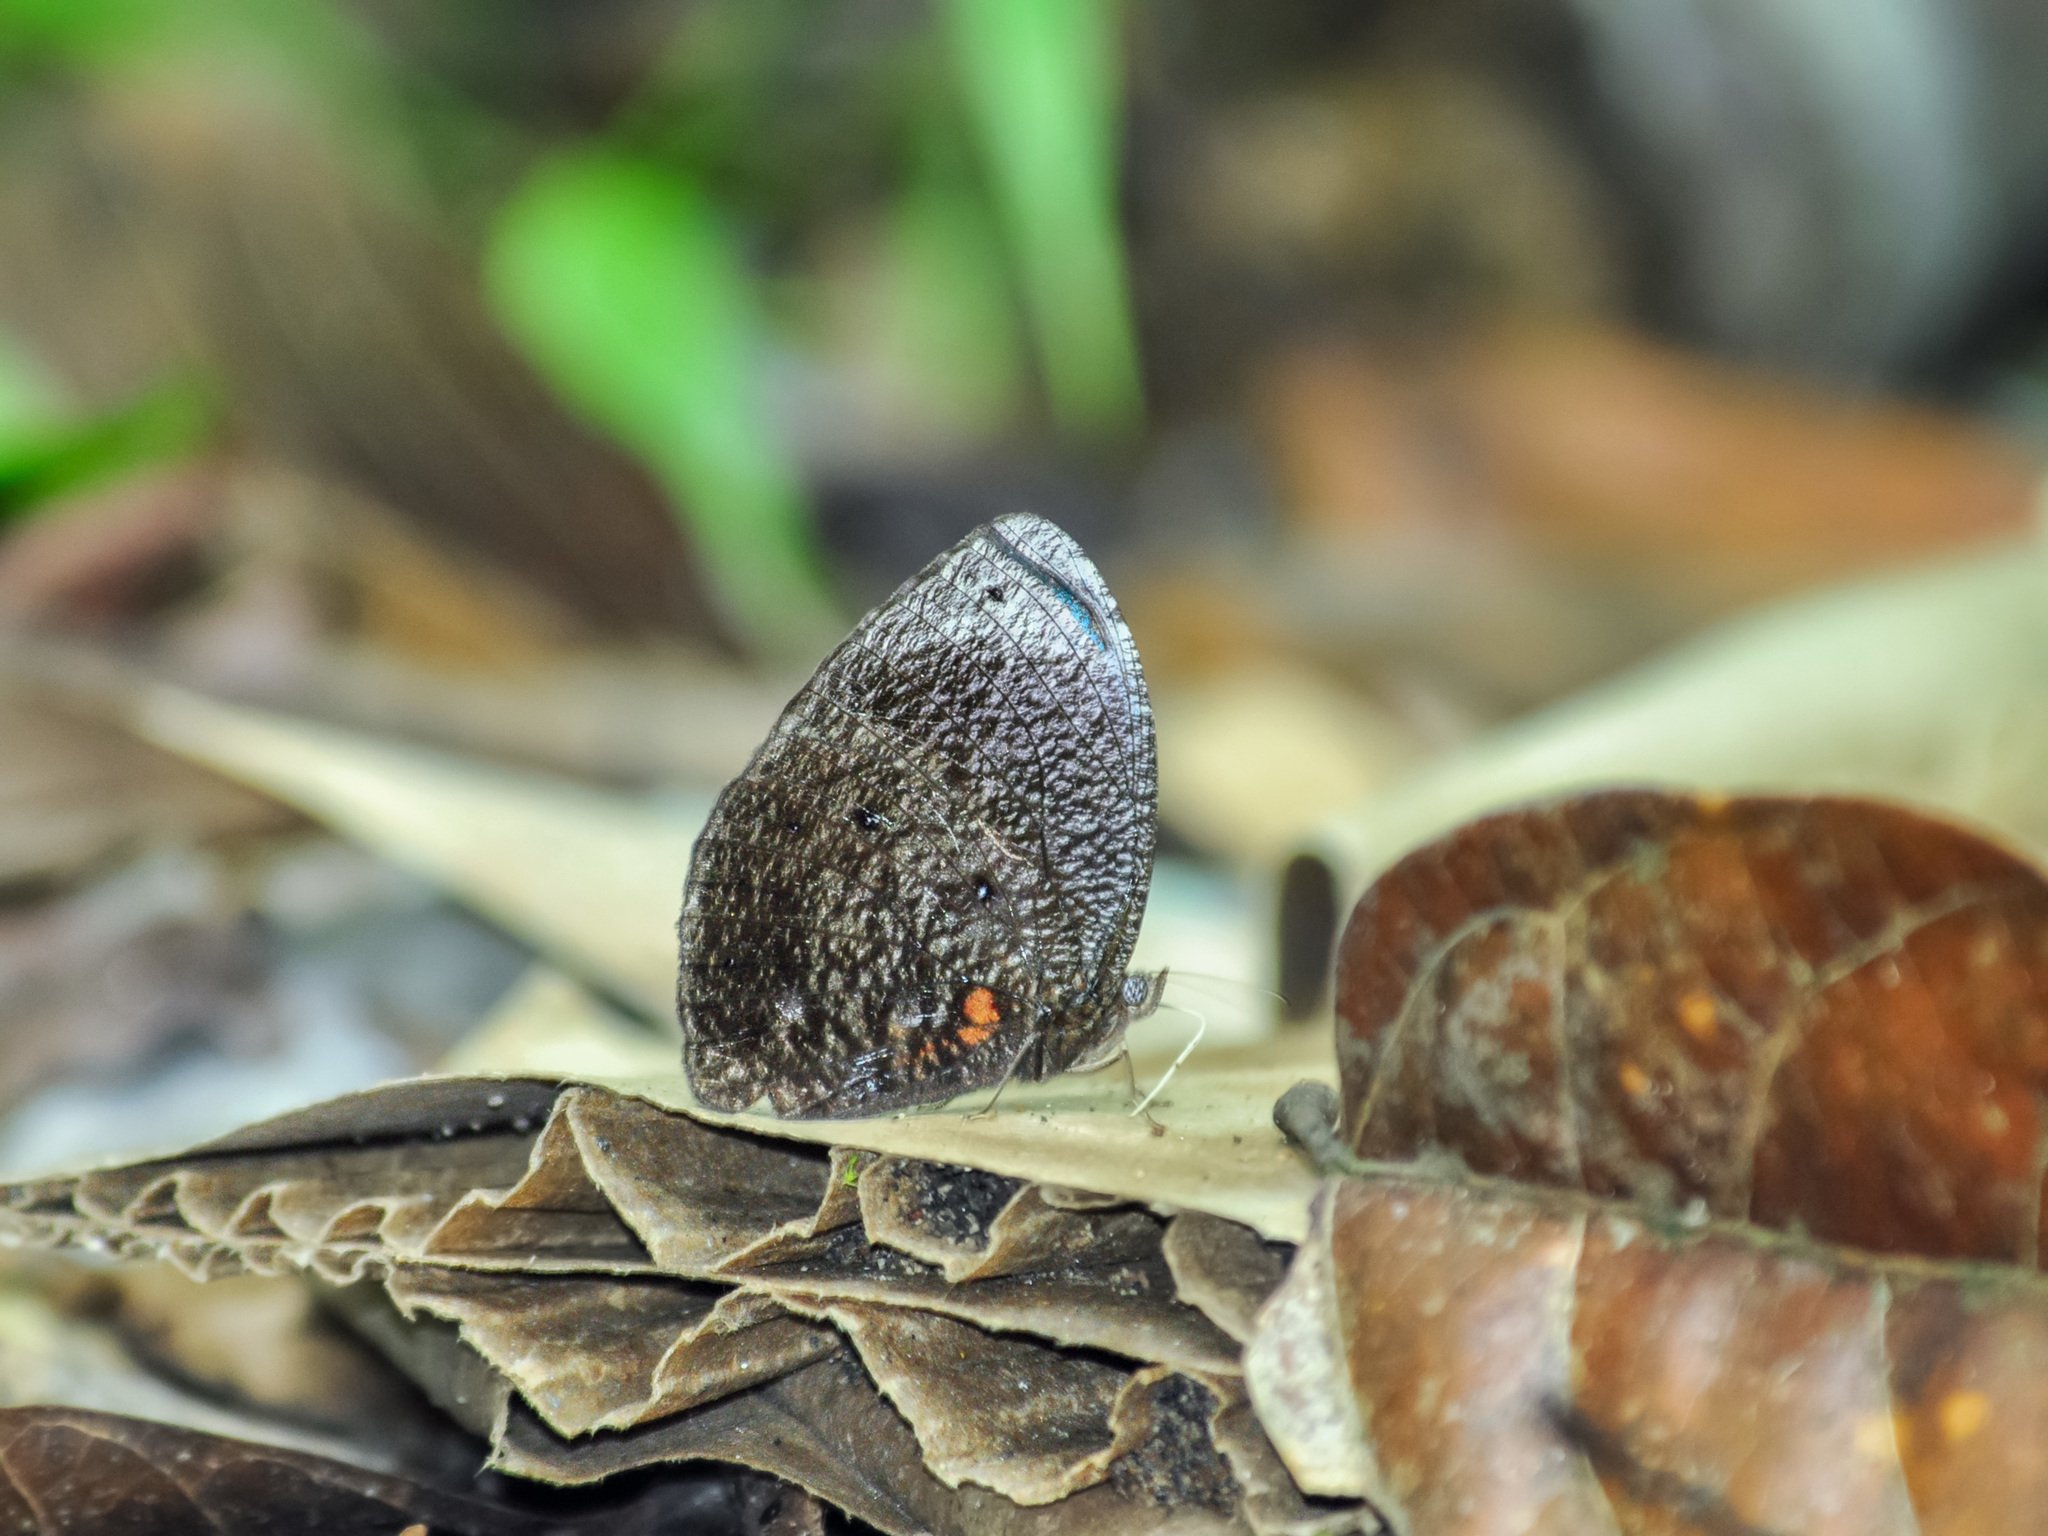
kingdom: Animalia
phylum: Arthropoda
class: Insecta
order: Lepidoptera
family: Nymphalidae
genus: Elymnias
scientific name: Elymnias esaca
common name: Green palmfly
